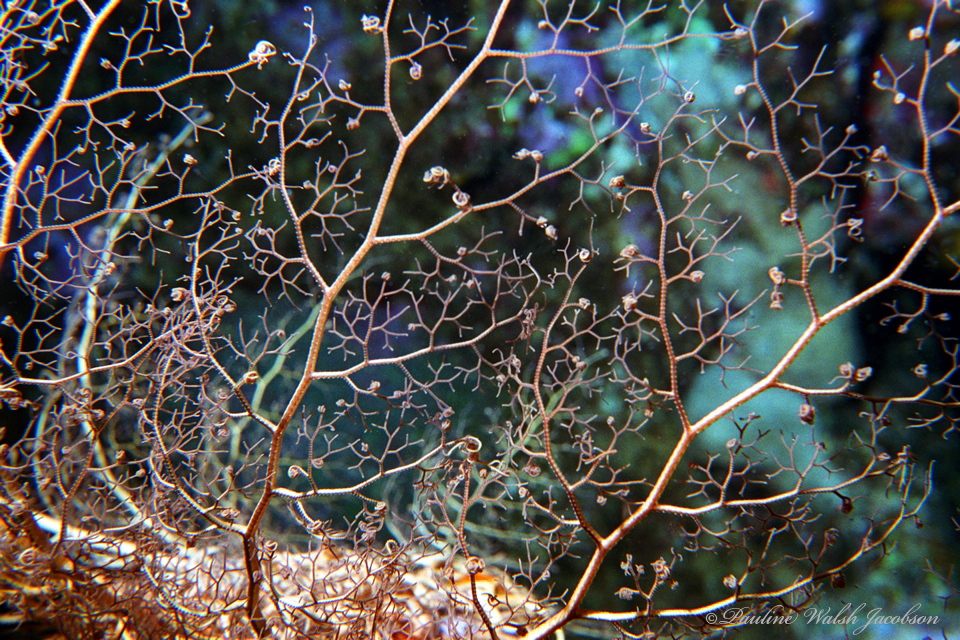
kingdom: Animalia
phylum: Echinodermata
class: Ophiuroidea
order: Euryalida
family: Gorgonocephalidae
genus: Astrophyton
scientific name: Astrophyton muricatum
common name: Basket starfish
